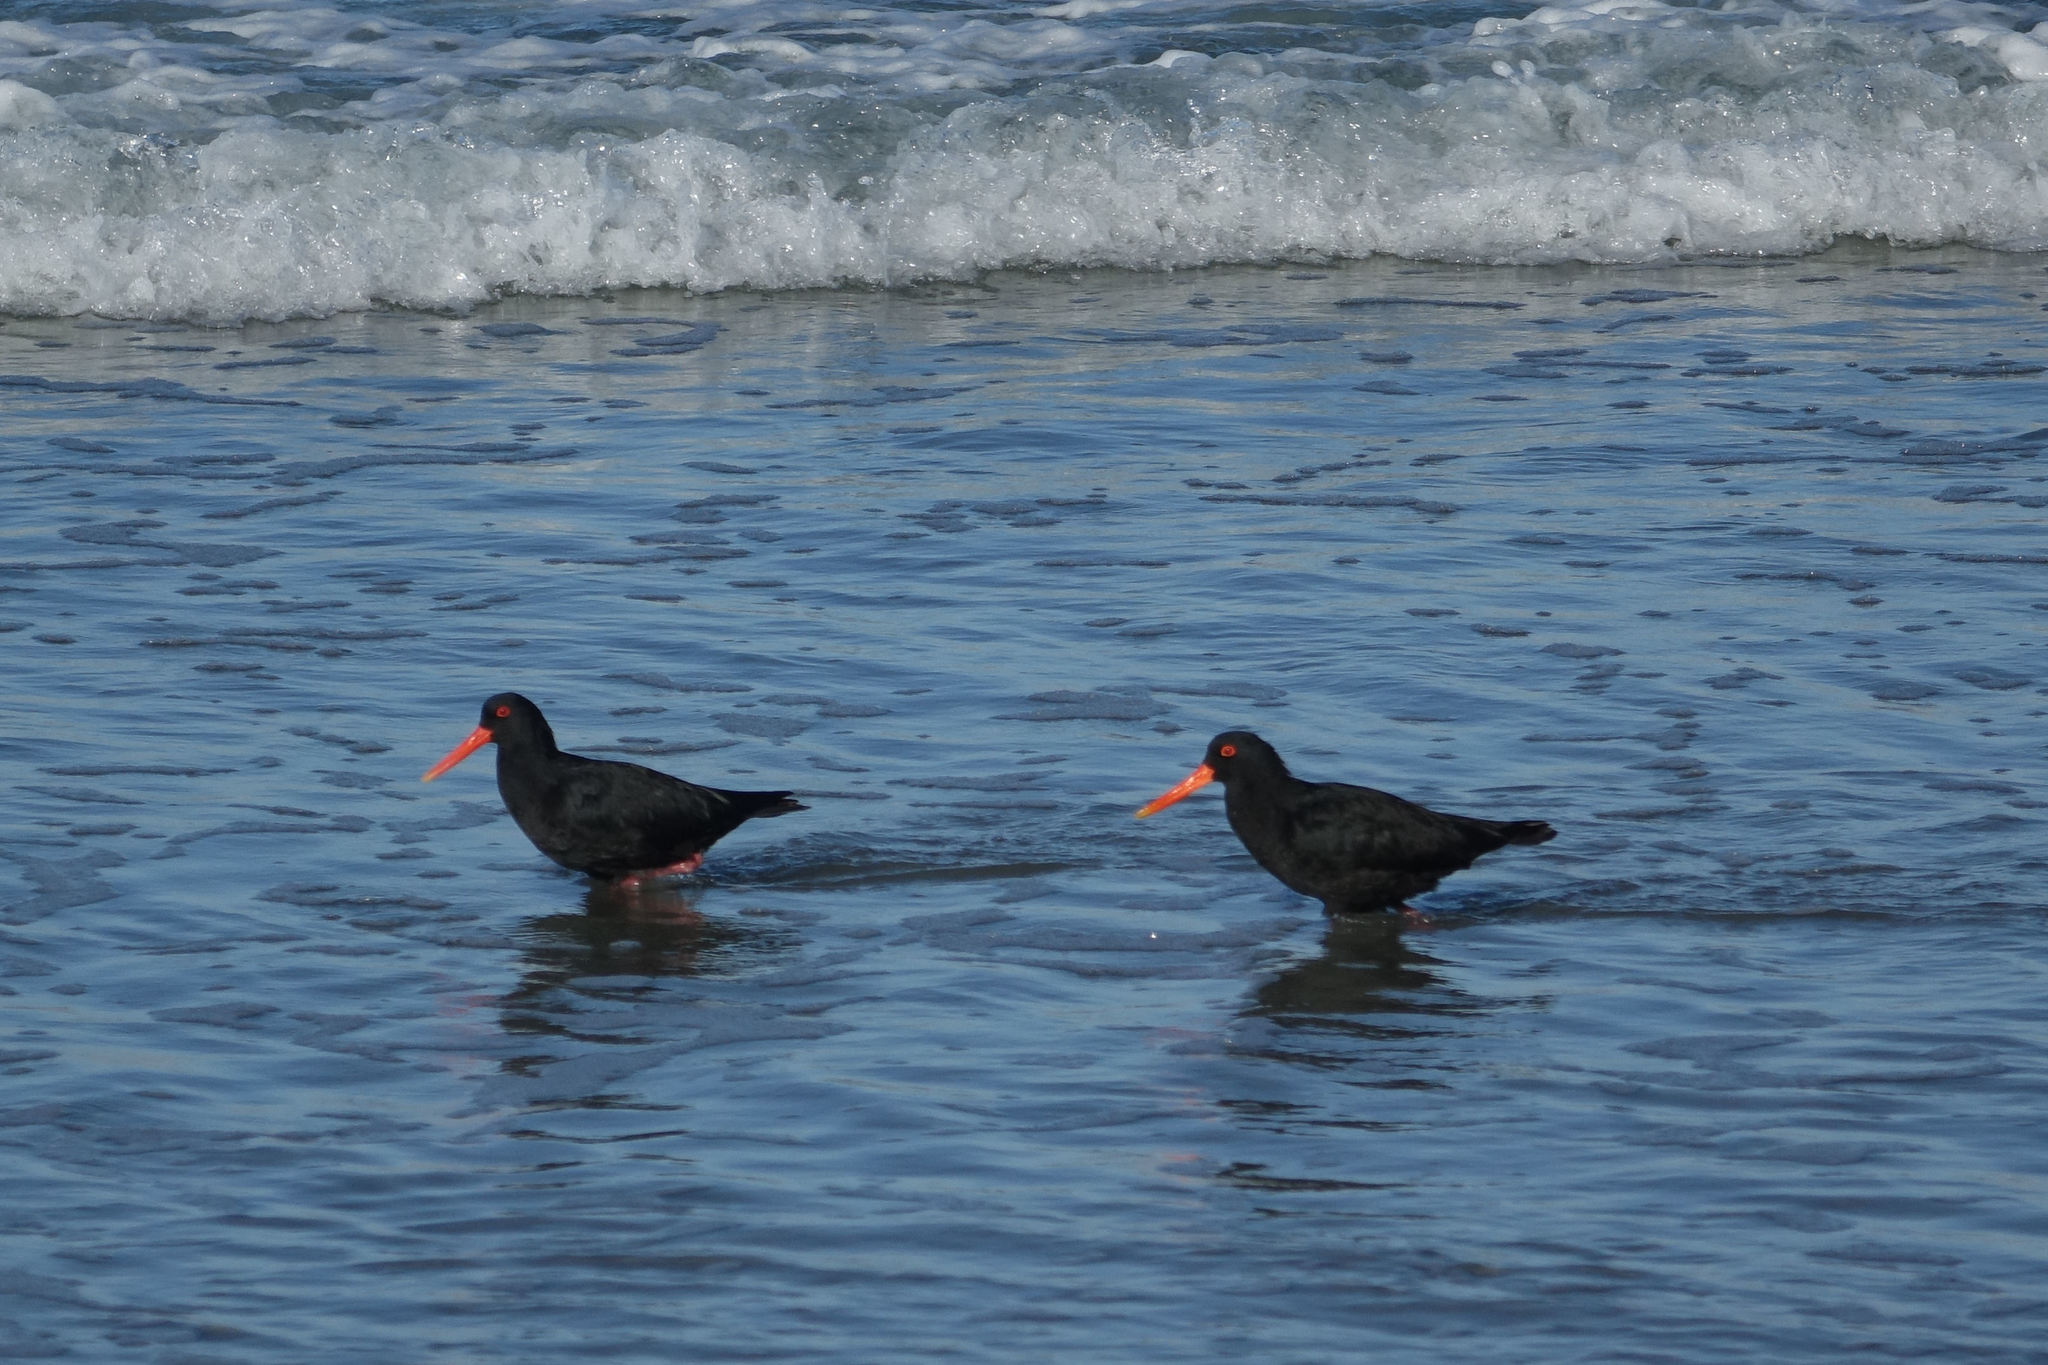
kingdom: Animalia
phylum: Chordata
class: Aves
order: Charadriiformes
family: Haematopodidae
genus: Haematopus
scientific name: Haematopus unicolor
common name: Variable oystercatcher
